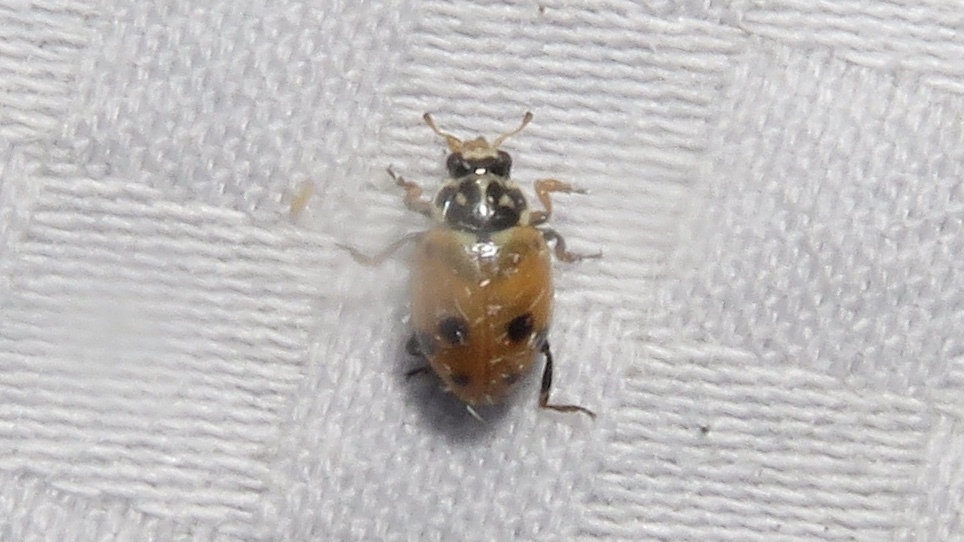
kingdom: Animalia
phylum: Arthropoda
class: Insecta
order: Coleoptera
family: Coccinellidae
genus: Hippodamia
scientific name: Hippodamia variegata
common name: Ladybird beetle
